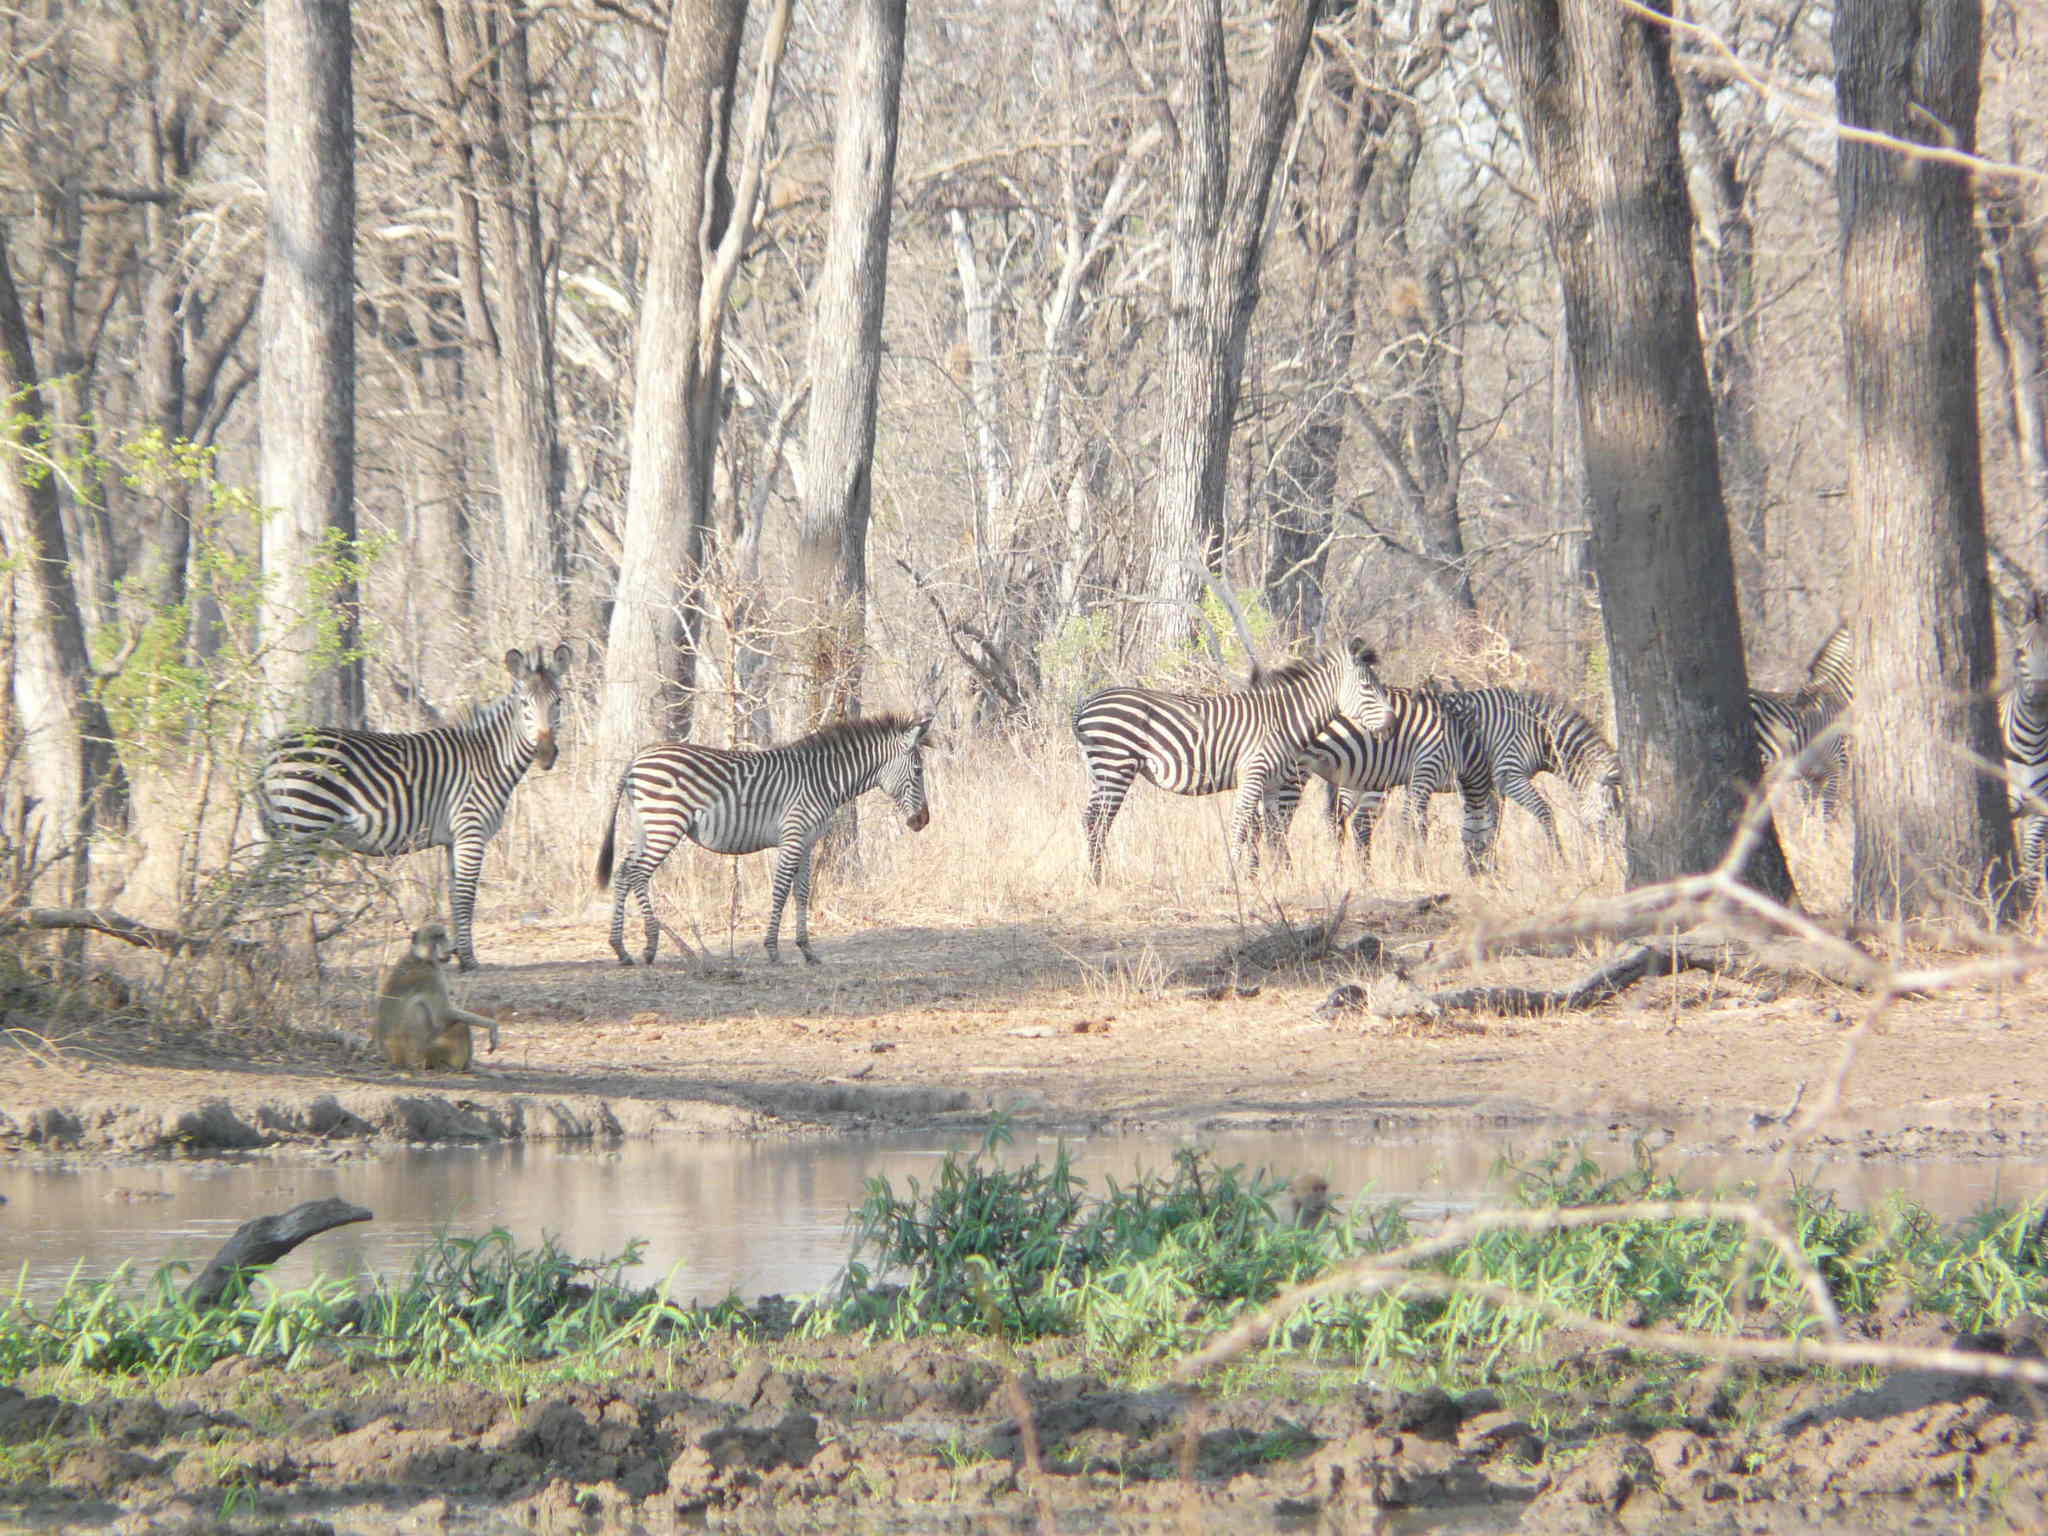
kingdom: Animalia
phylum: Chordata
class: Mammalia
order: Perissodactyla
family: Equidae
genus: Equus
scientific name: Equus quagga
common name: Plains zebra
